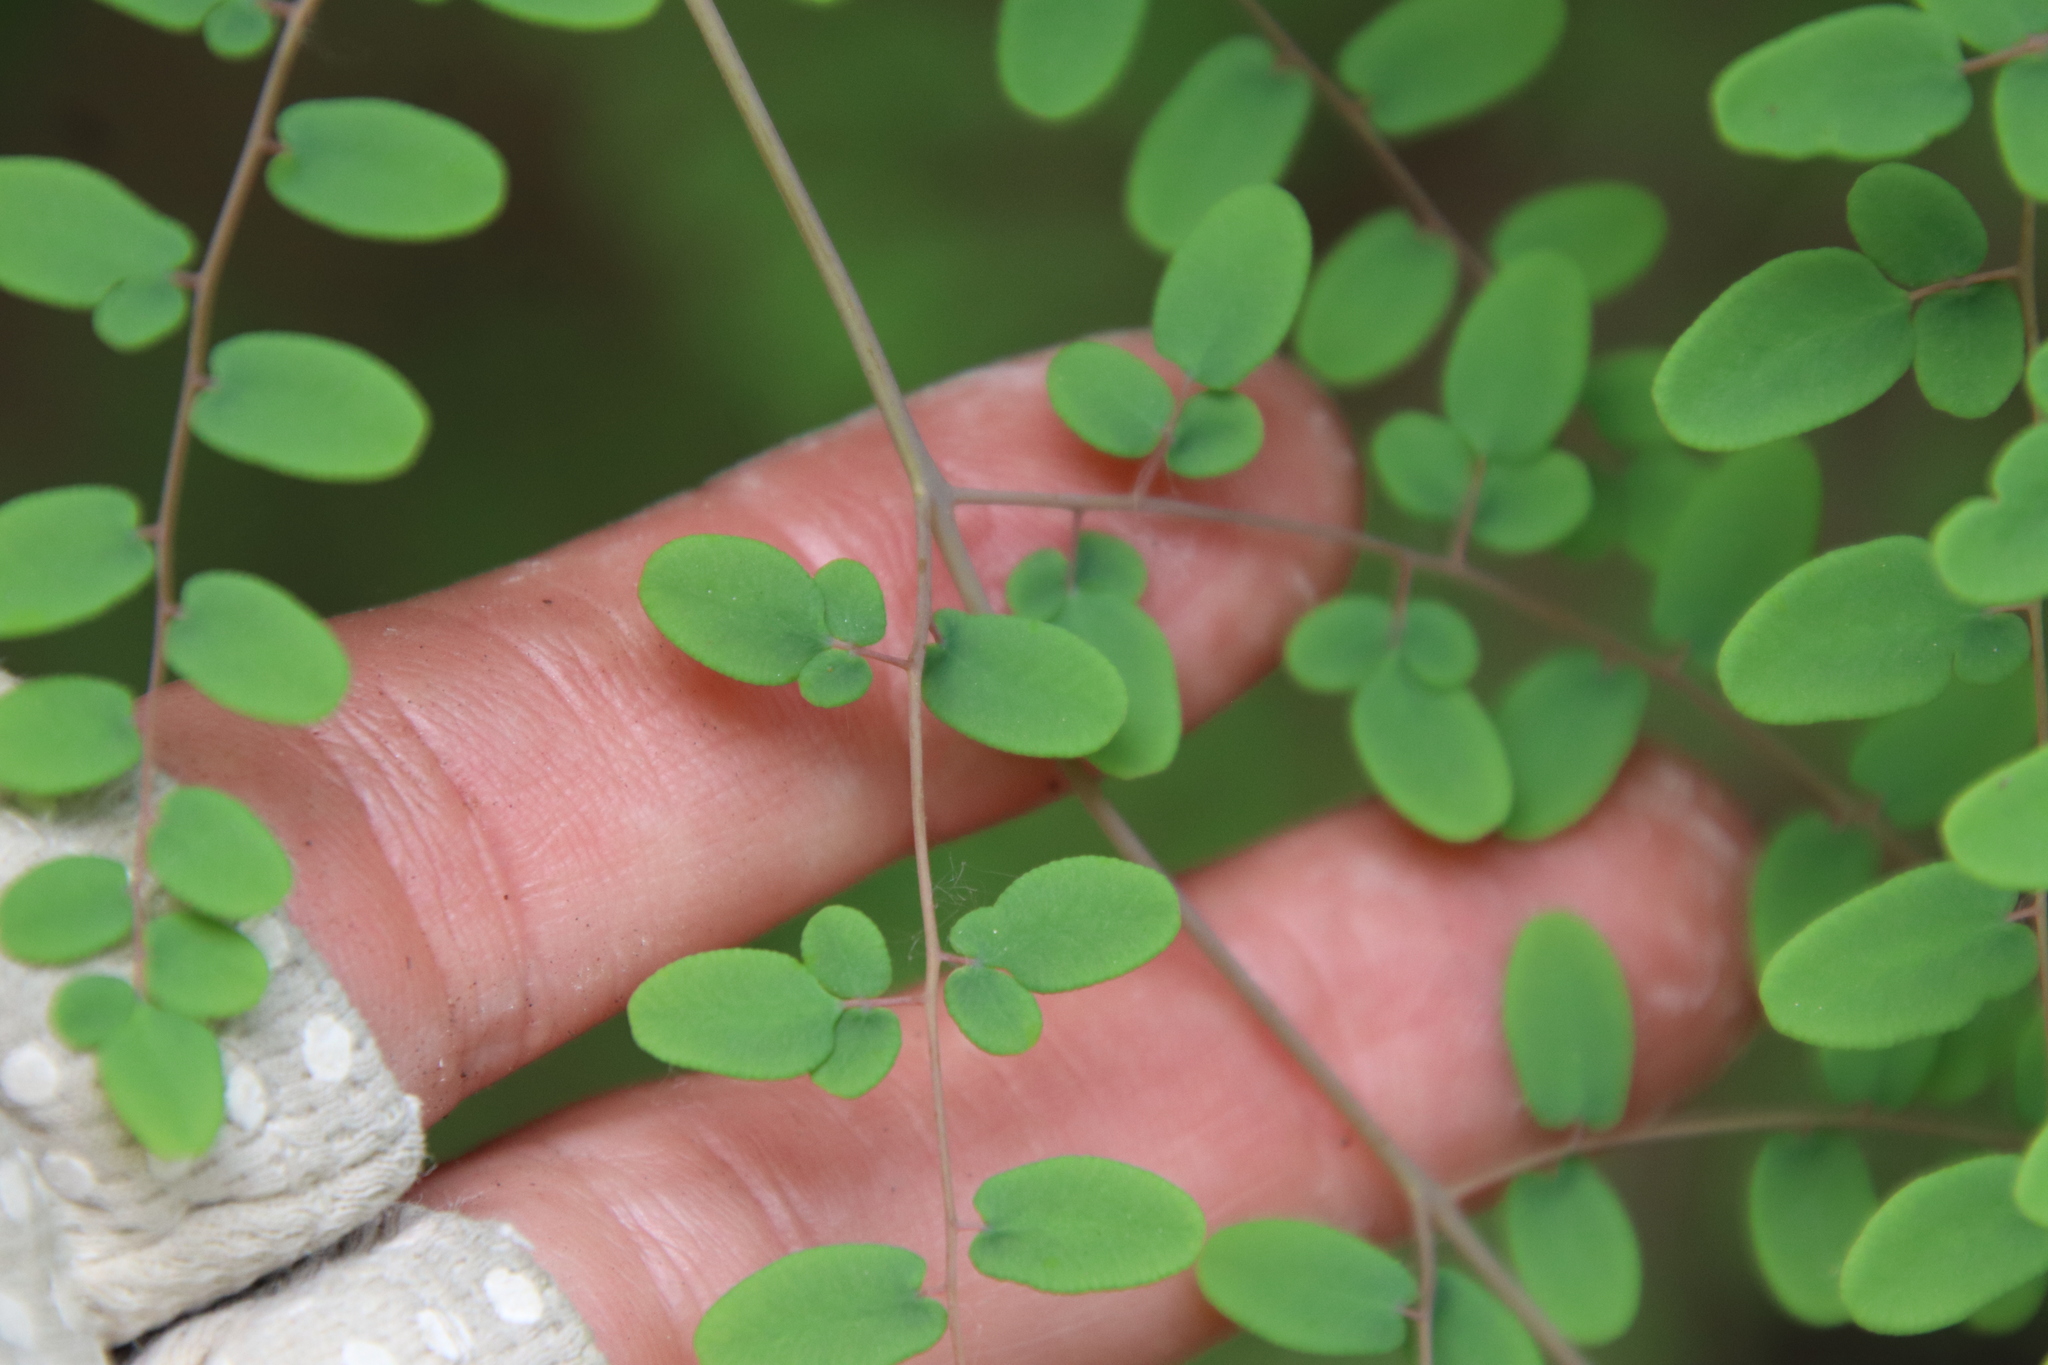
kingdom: Plantae
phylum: Tracheophyta
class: Polypodiopsida
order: Polypodiales
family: Pteridaceae
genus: Pellaea
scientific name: Pellaea andromedifolia
